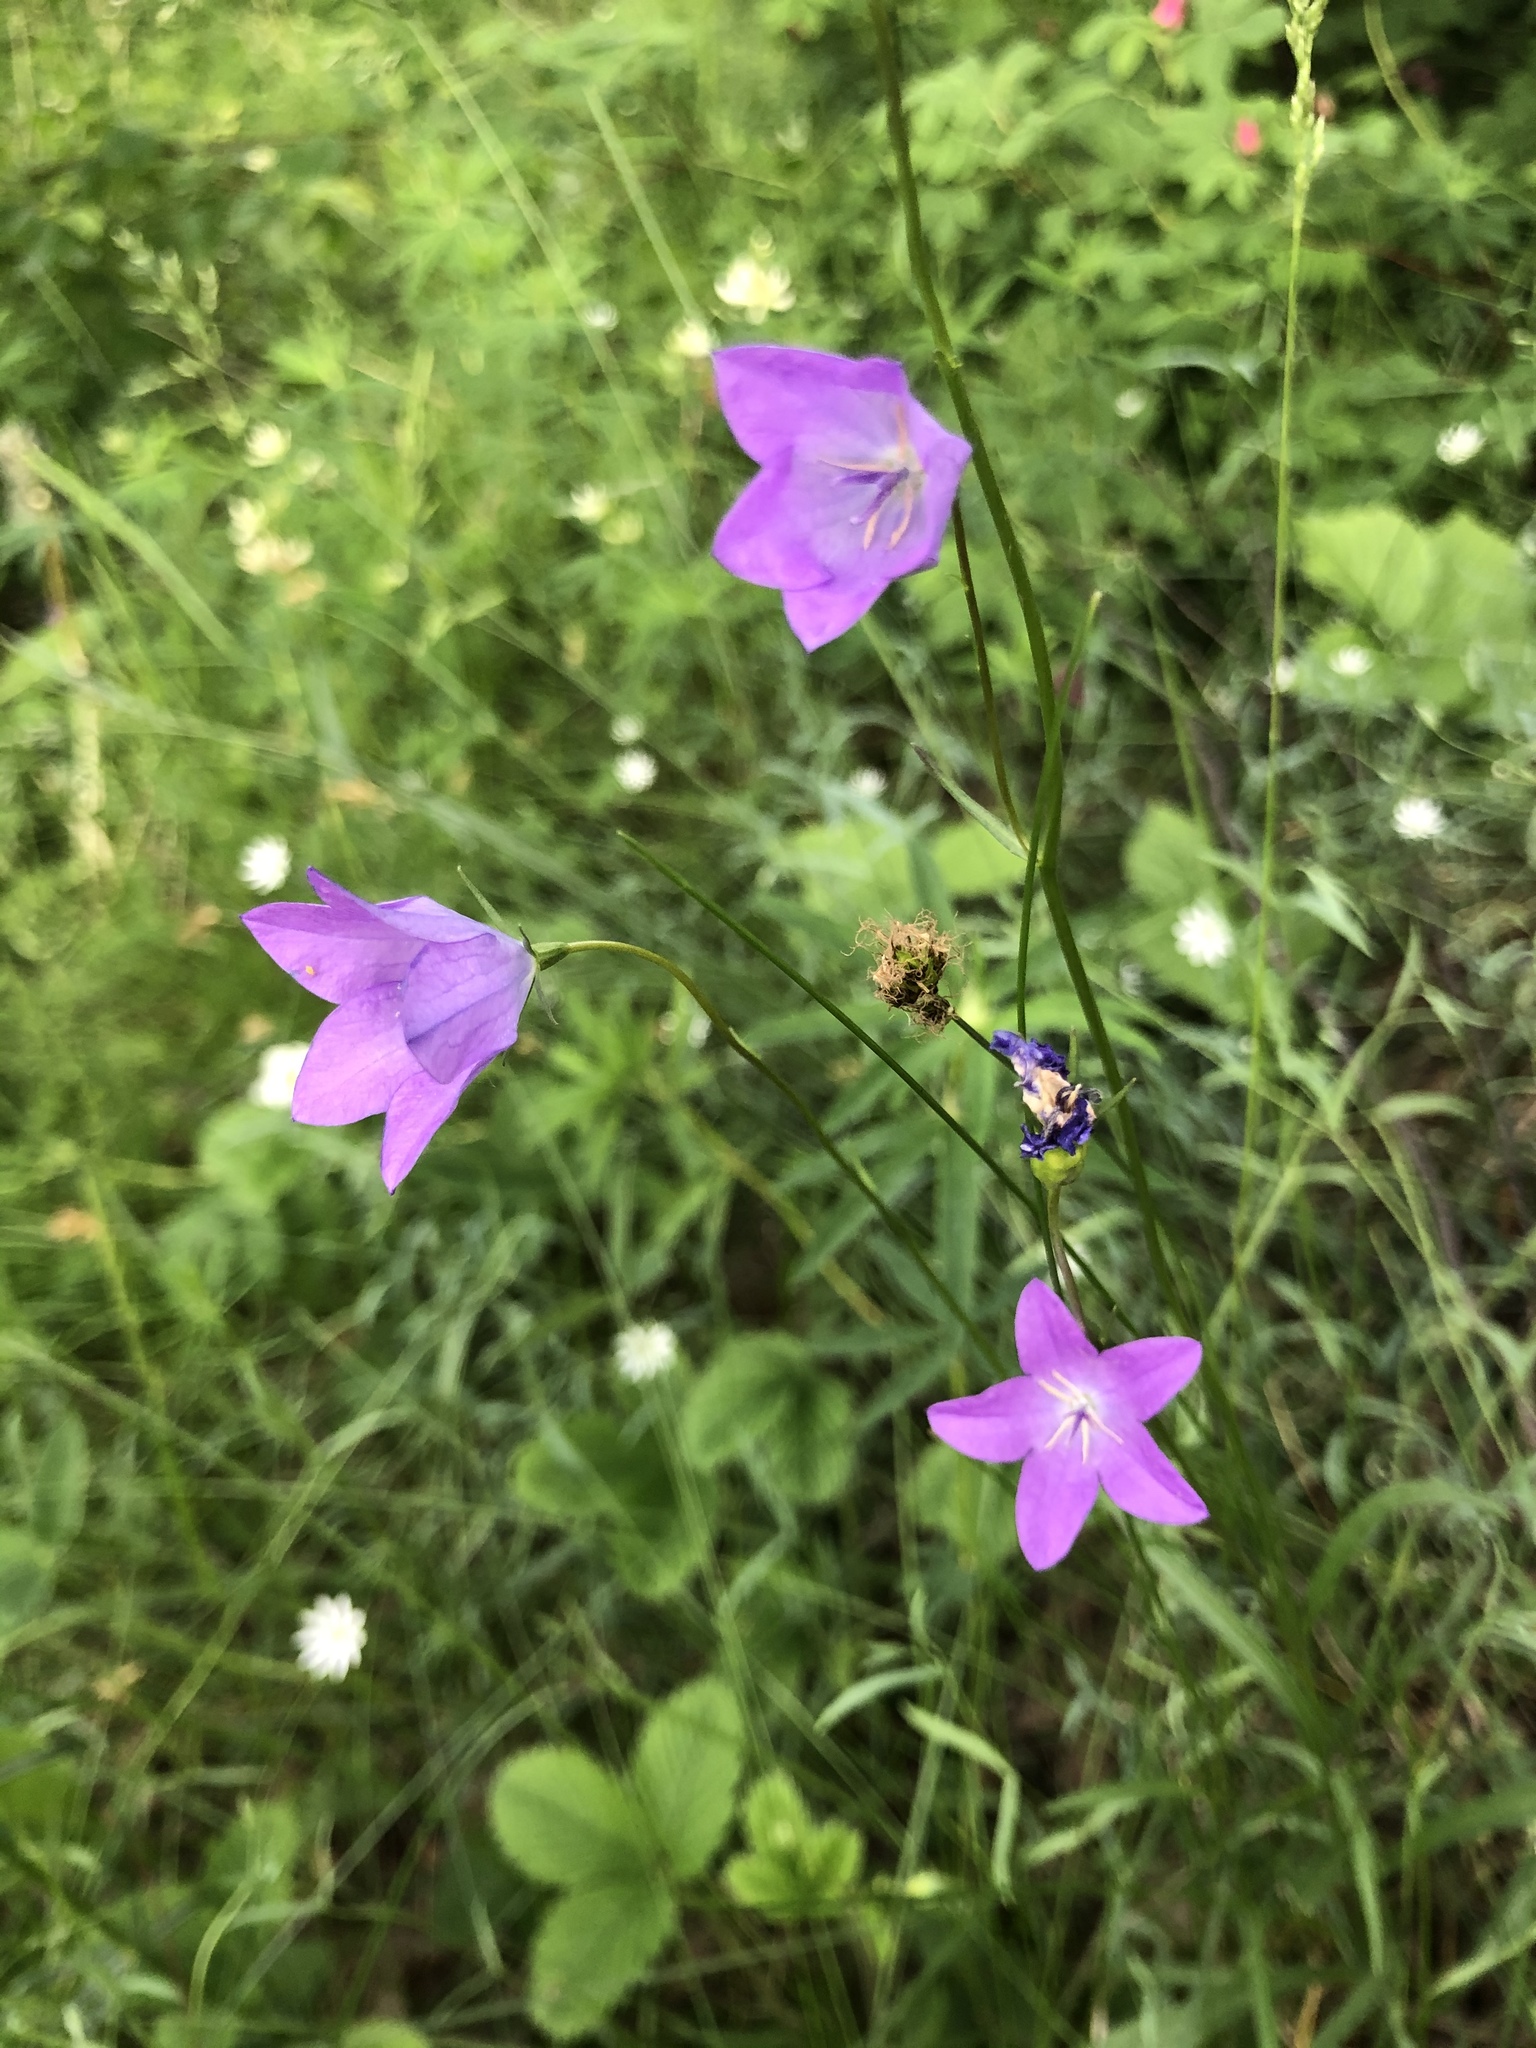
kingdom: Plantae
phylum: Tracheophyta
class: Magnoliopsida
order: Asterales
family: Campanulaceae
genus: Campanula
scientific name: Campanula stevenii
